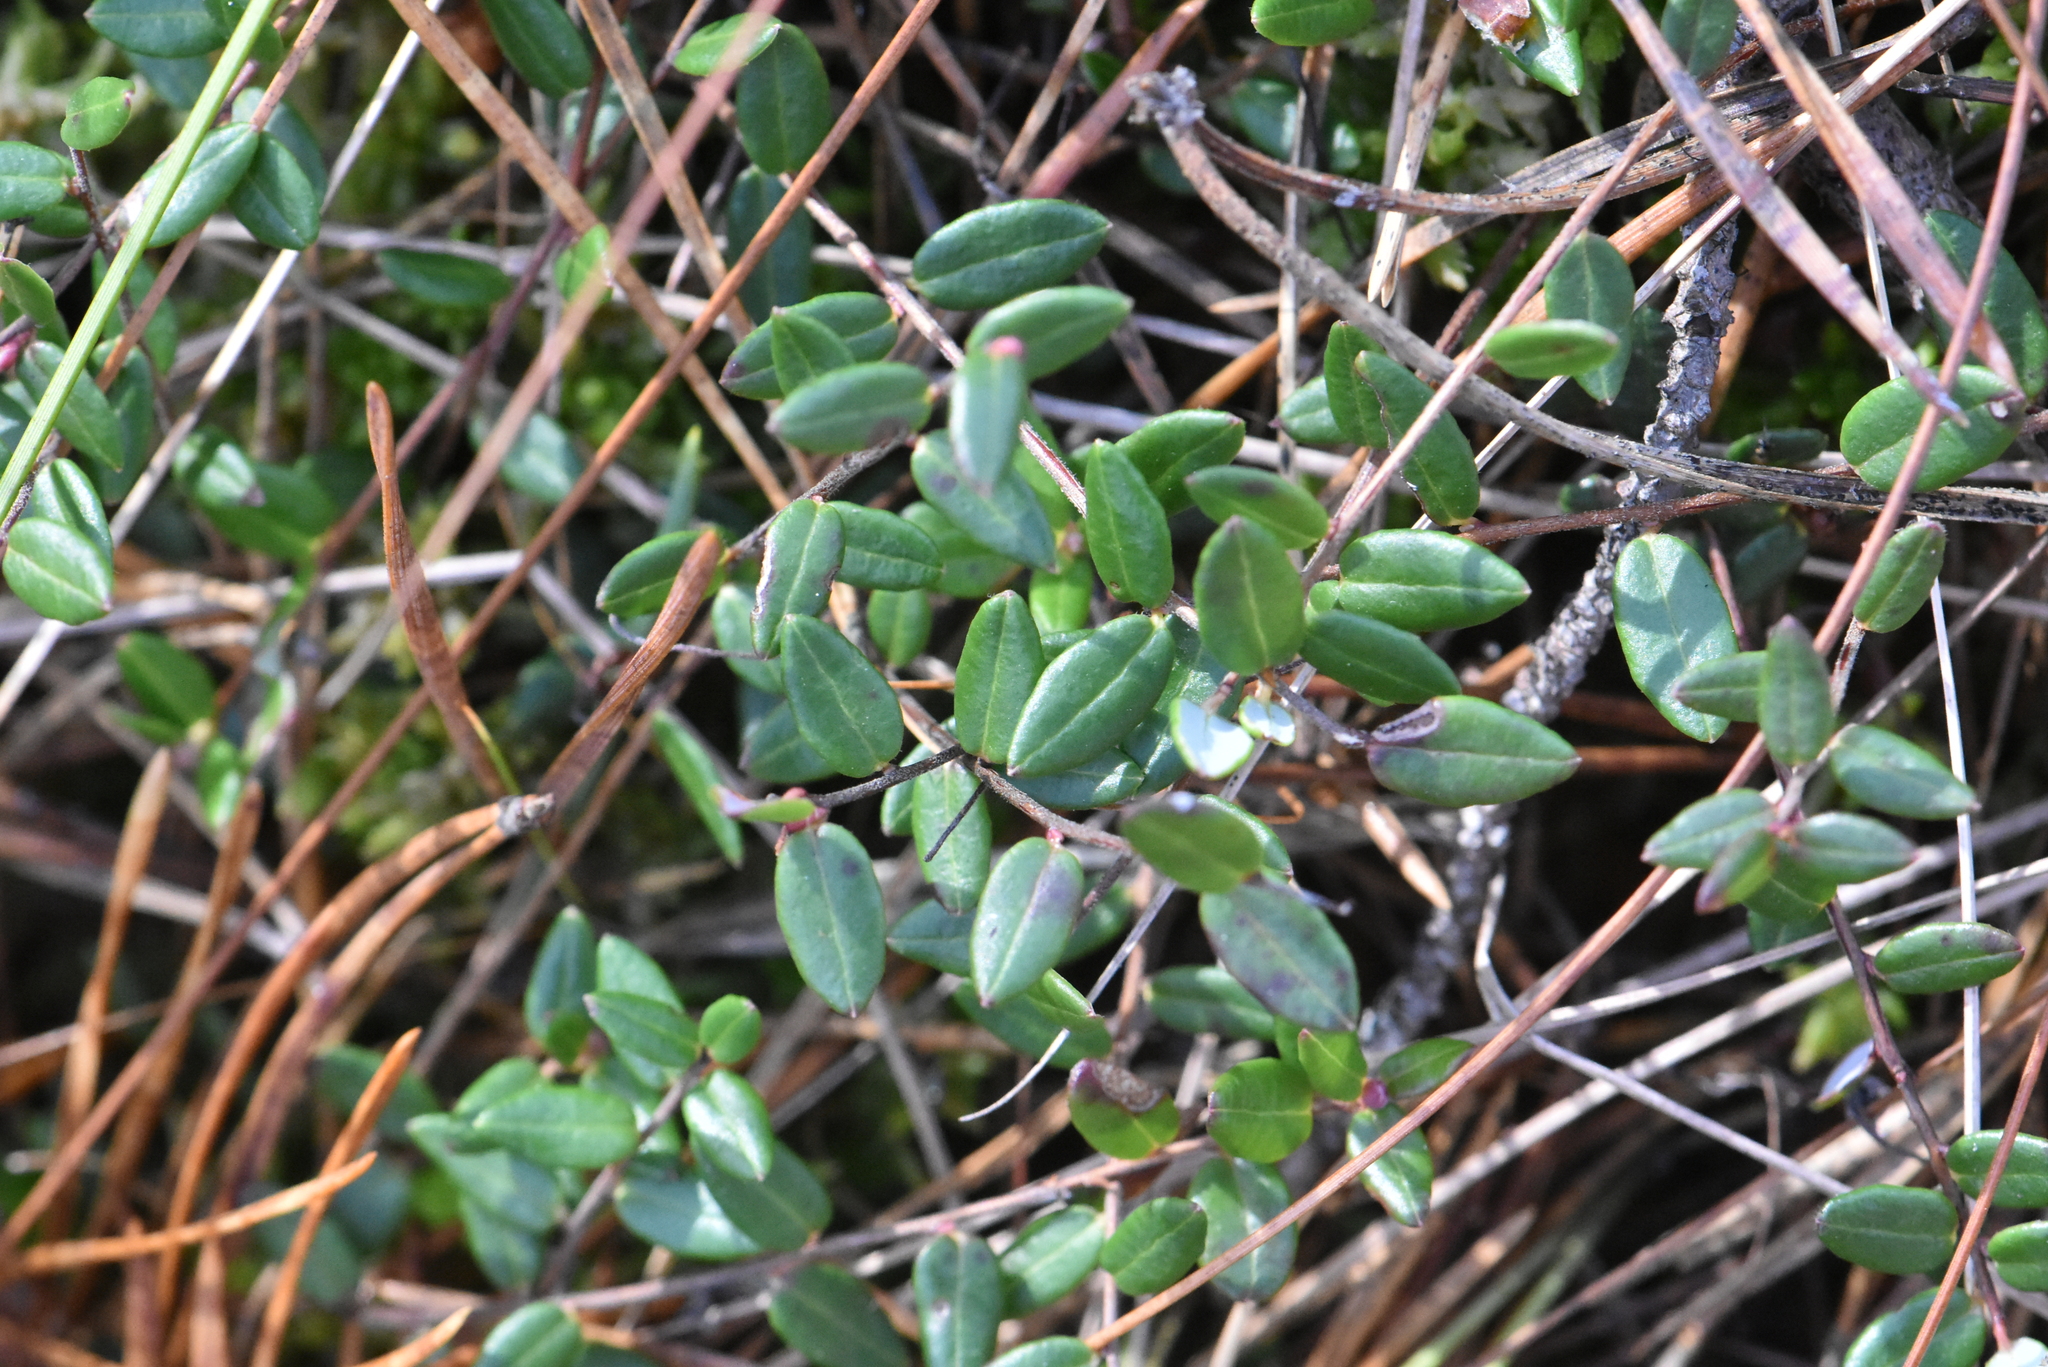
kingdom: Plantae
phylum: Tracheophyta
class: Magnoliopsida
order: Ericales
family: Ericaceae
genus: Vaccinium
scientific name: Vaccinium oxycoccos
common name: Cranberry
